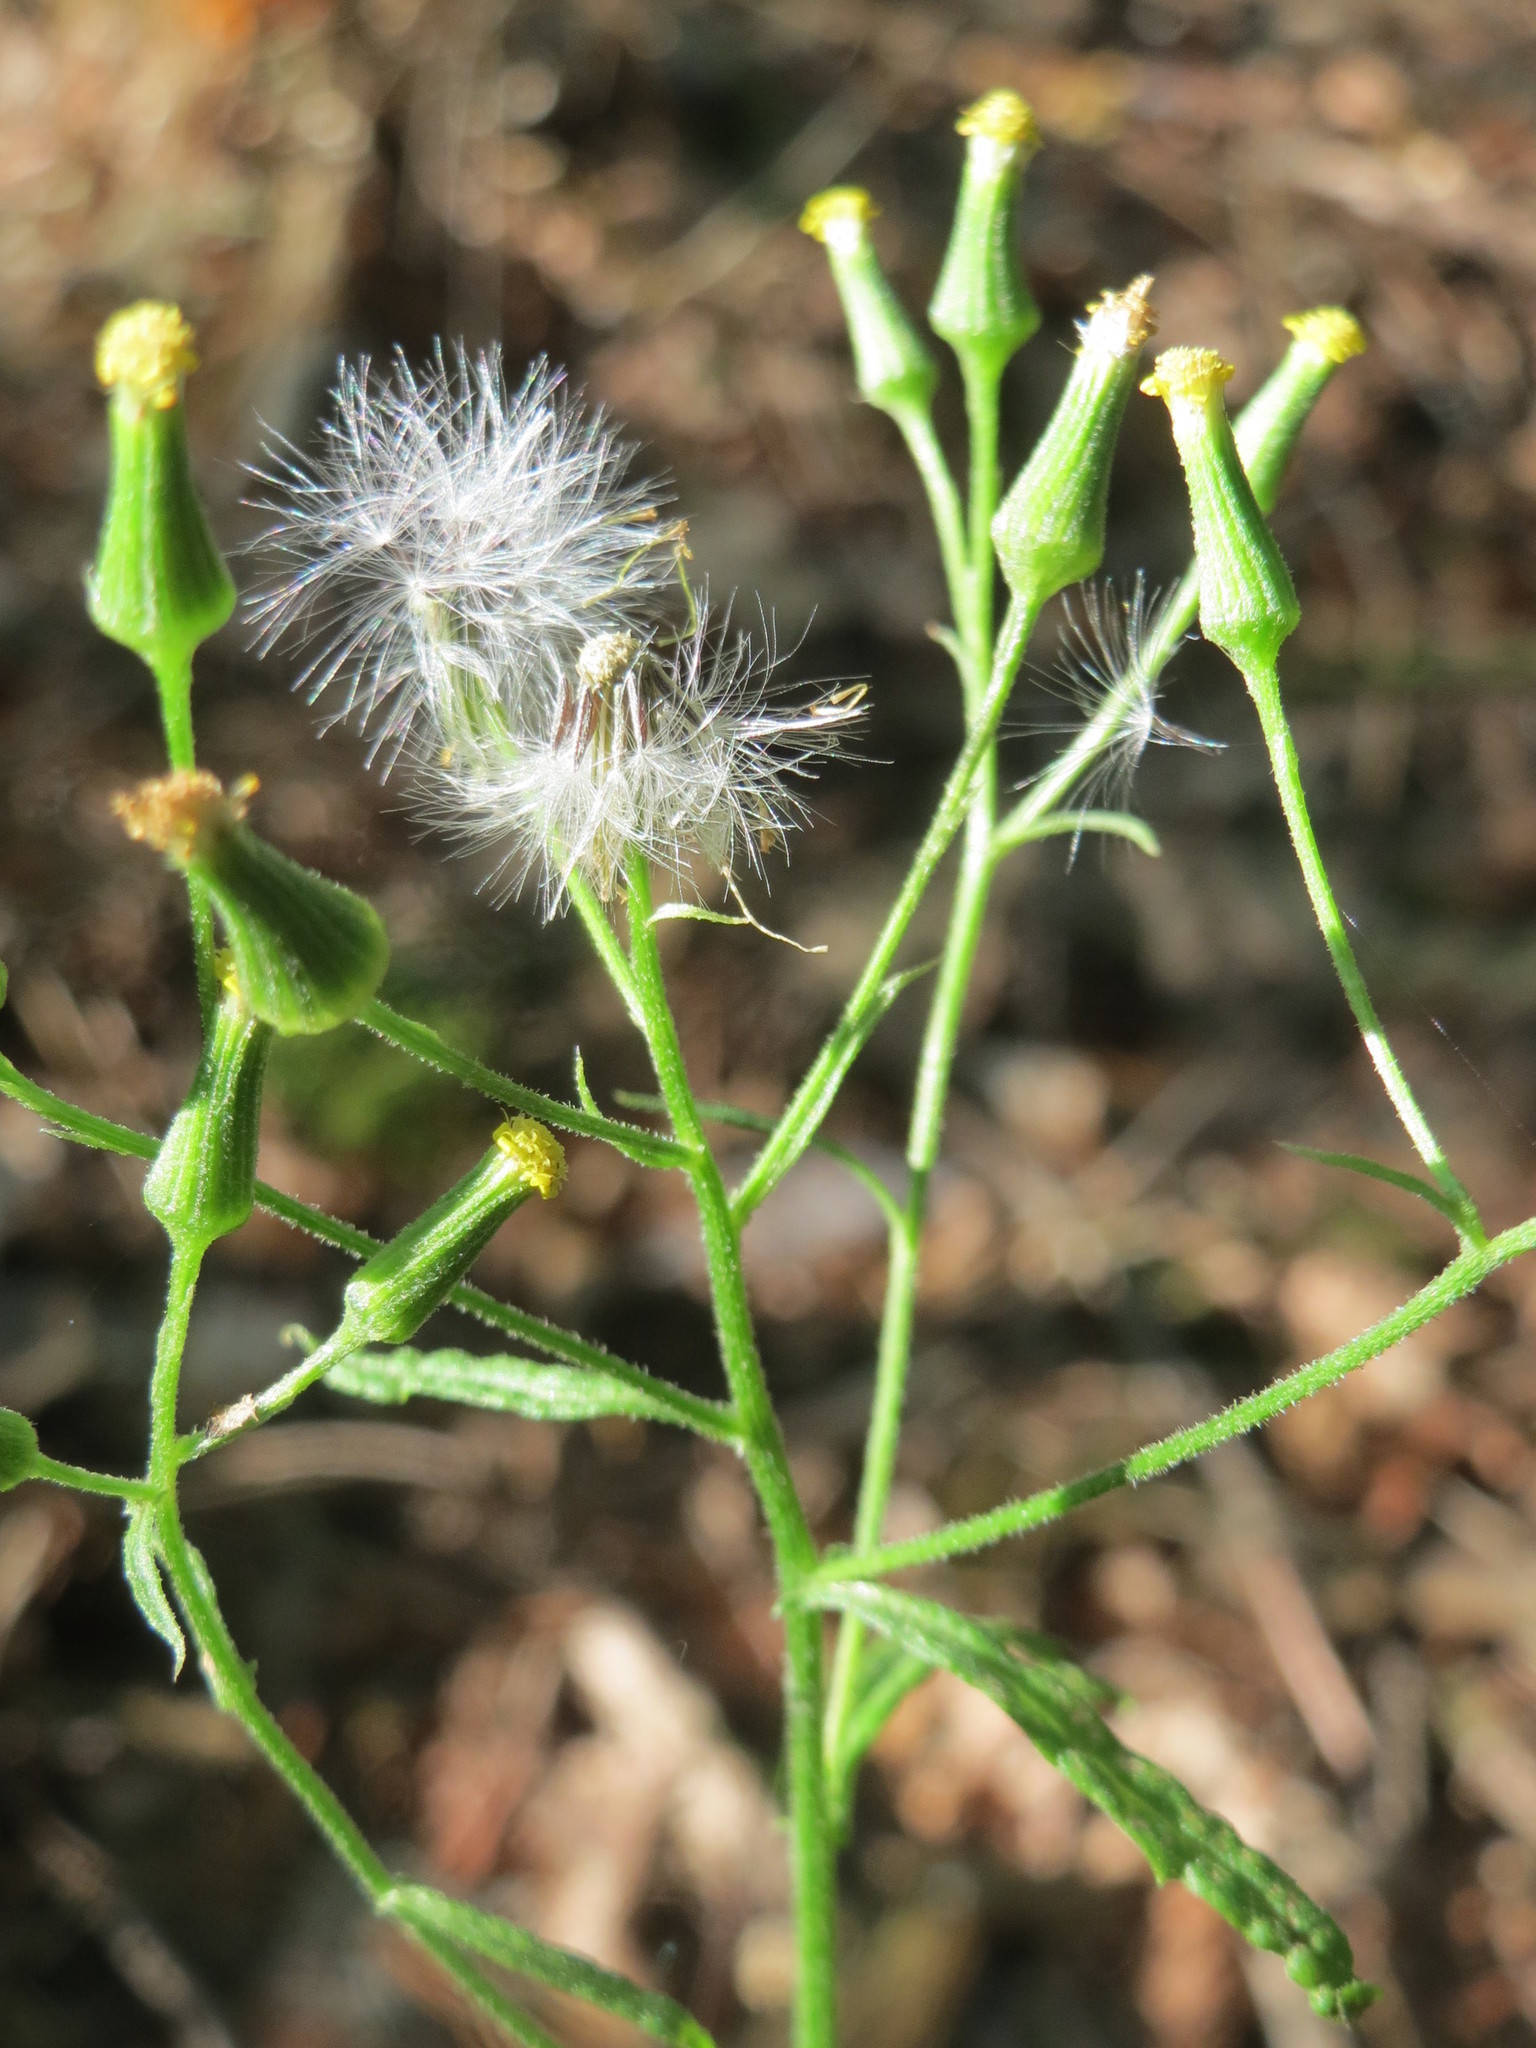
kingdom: Plantae
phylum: Tracheophyta
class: Magnoliopsida
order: Asterales
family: Asteraceae
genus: Senecio
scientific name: Senecio sylvaticus
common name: Woodland ragwort
